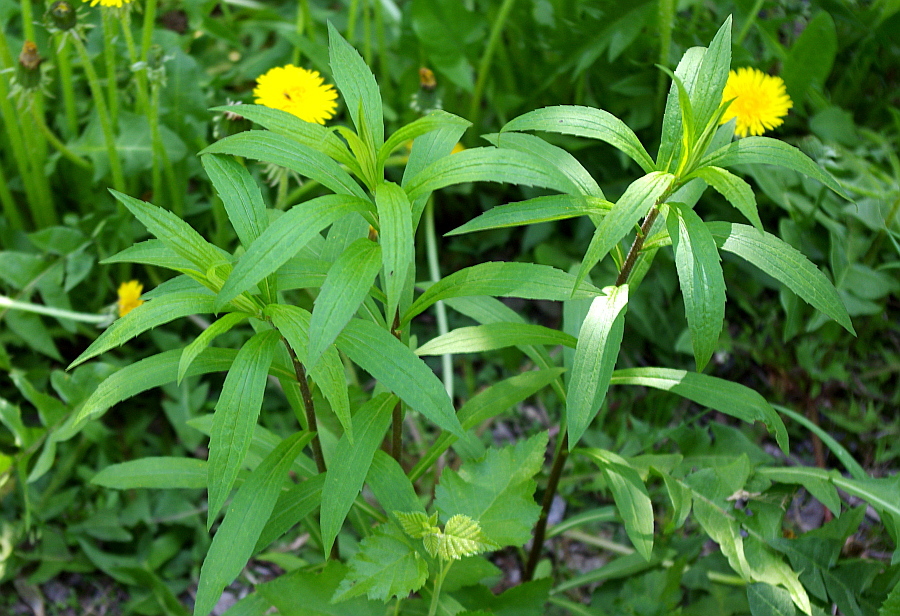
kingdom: Plantae
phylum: Tracheophyta
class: Magnoliopsida
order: Asterales
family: Asteraceae
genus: Solidago
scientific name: Solidago canadensis
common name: Canada goldenrod
